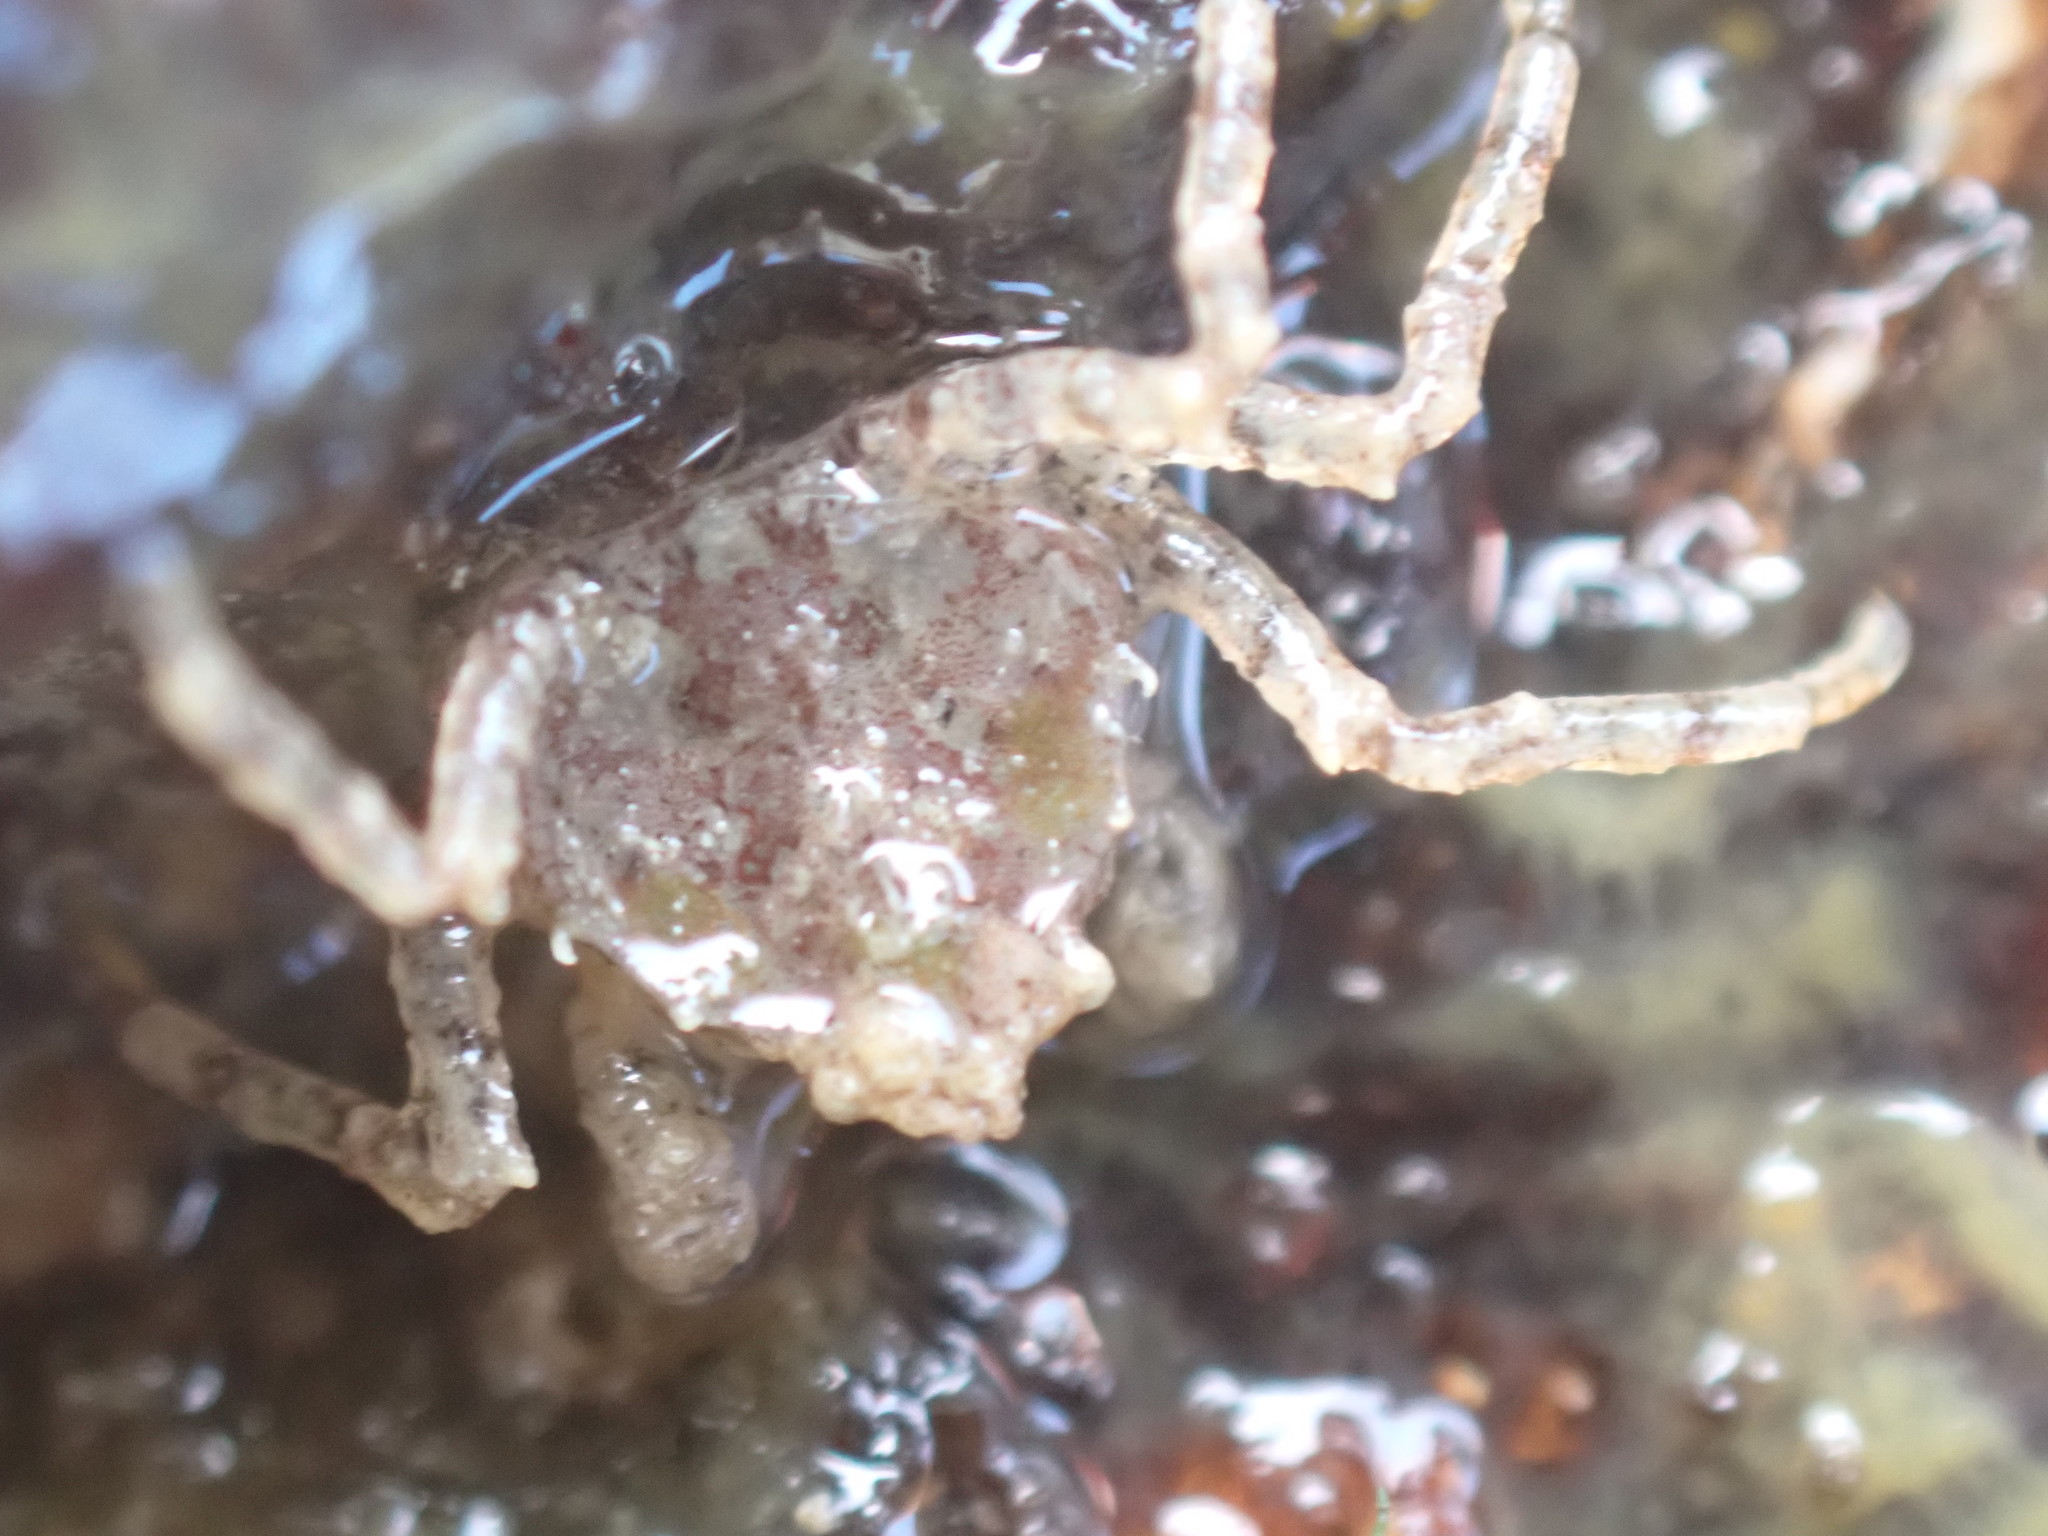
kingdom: Animalia
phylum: Arthropoda
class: Malacostraca
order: Decapoda
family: Hymenosomatidae
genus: Halicarcinus
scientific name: Halicarcinus cookii
